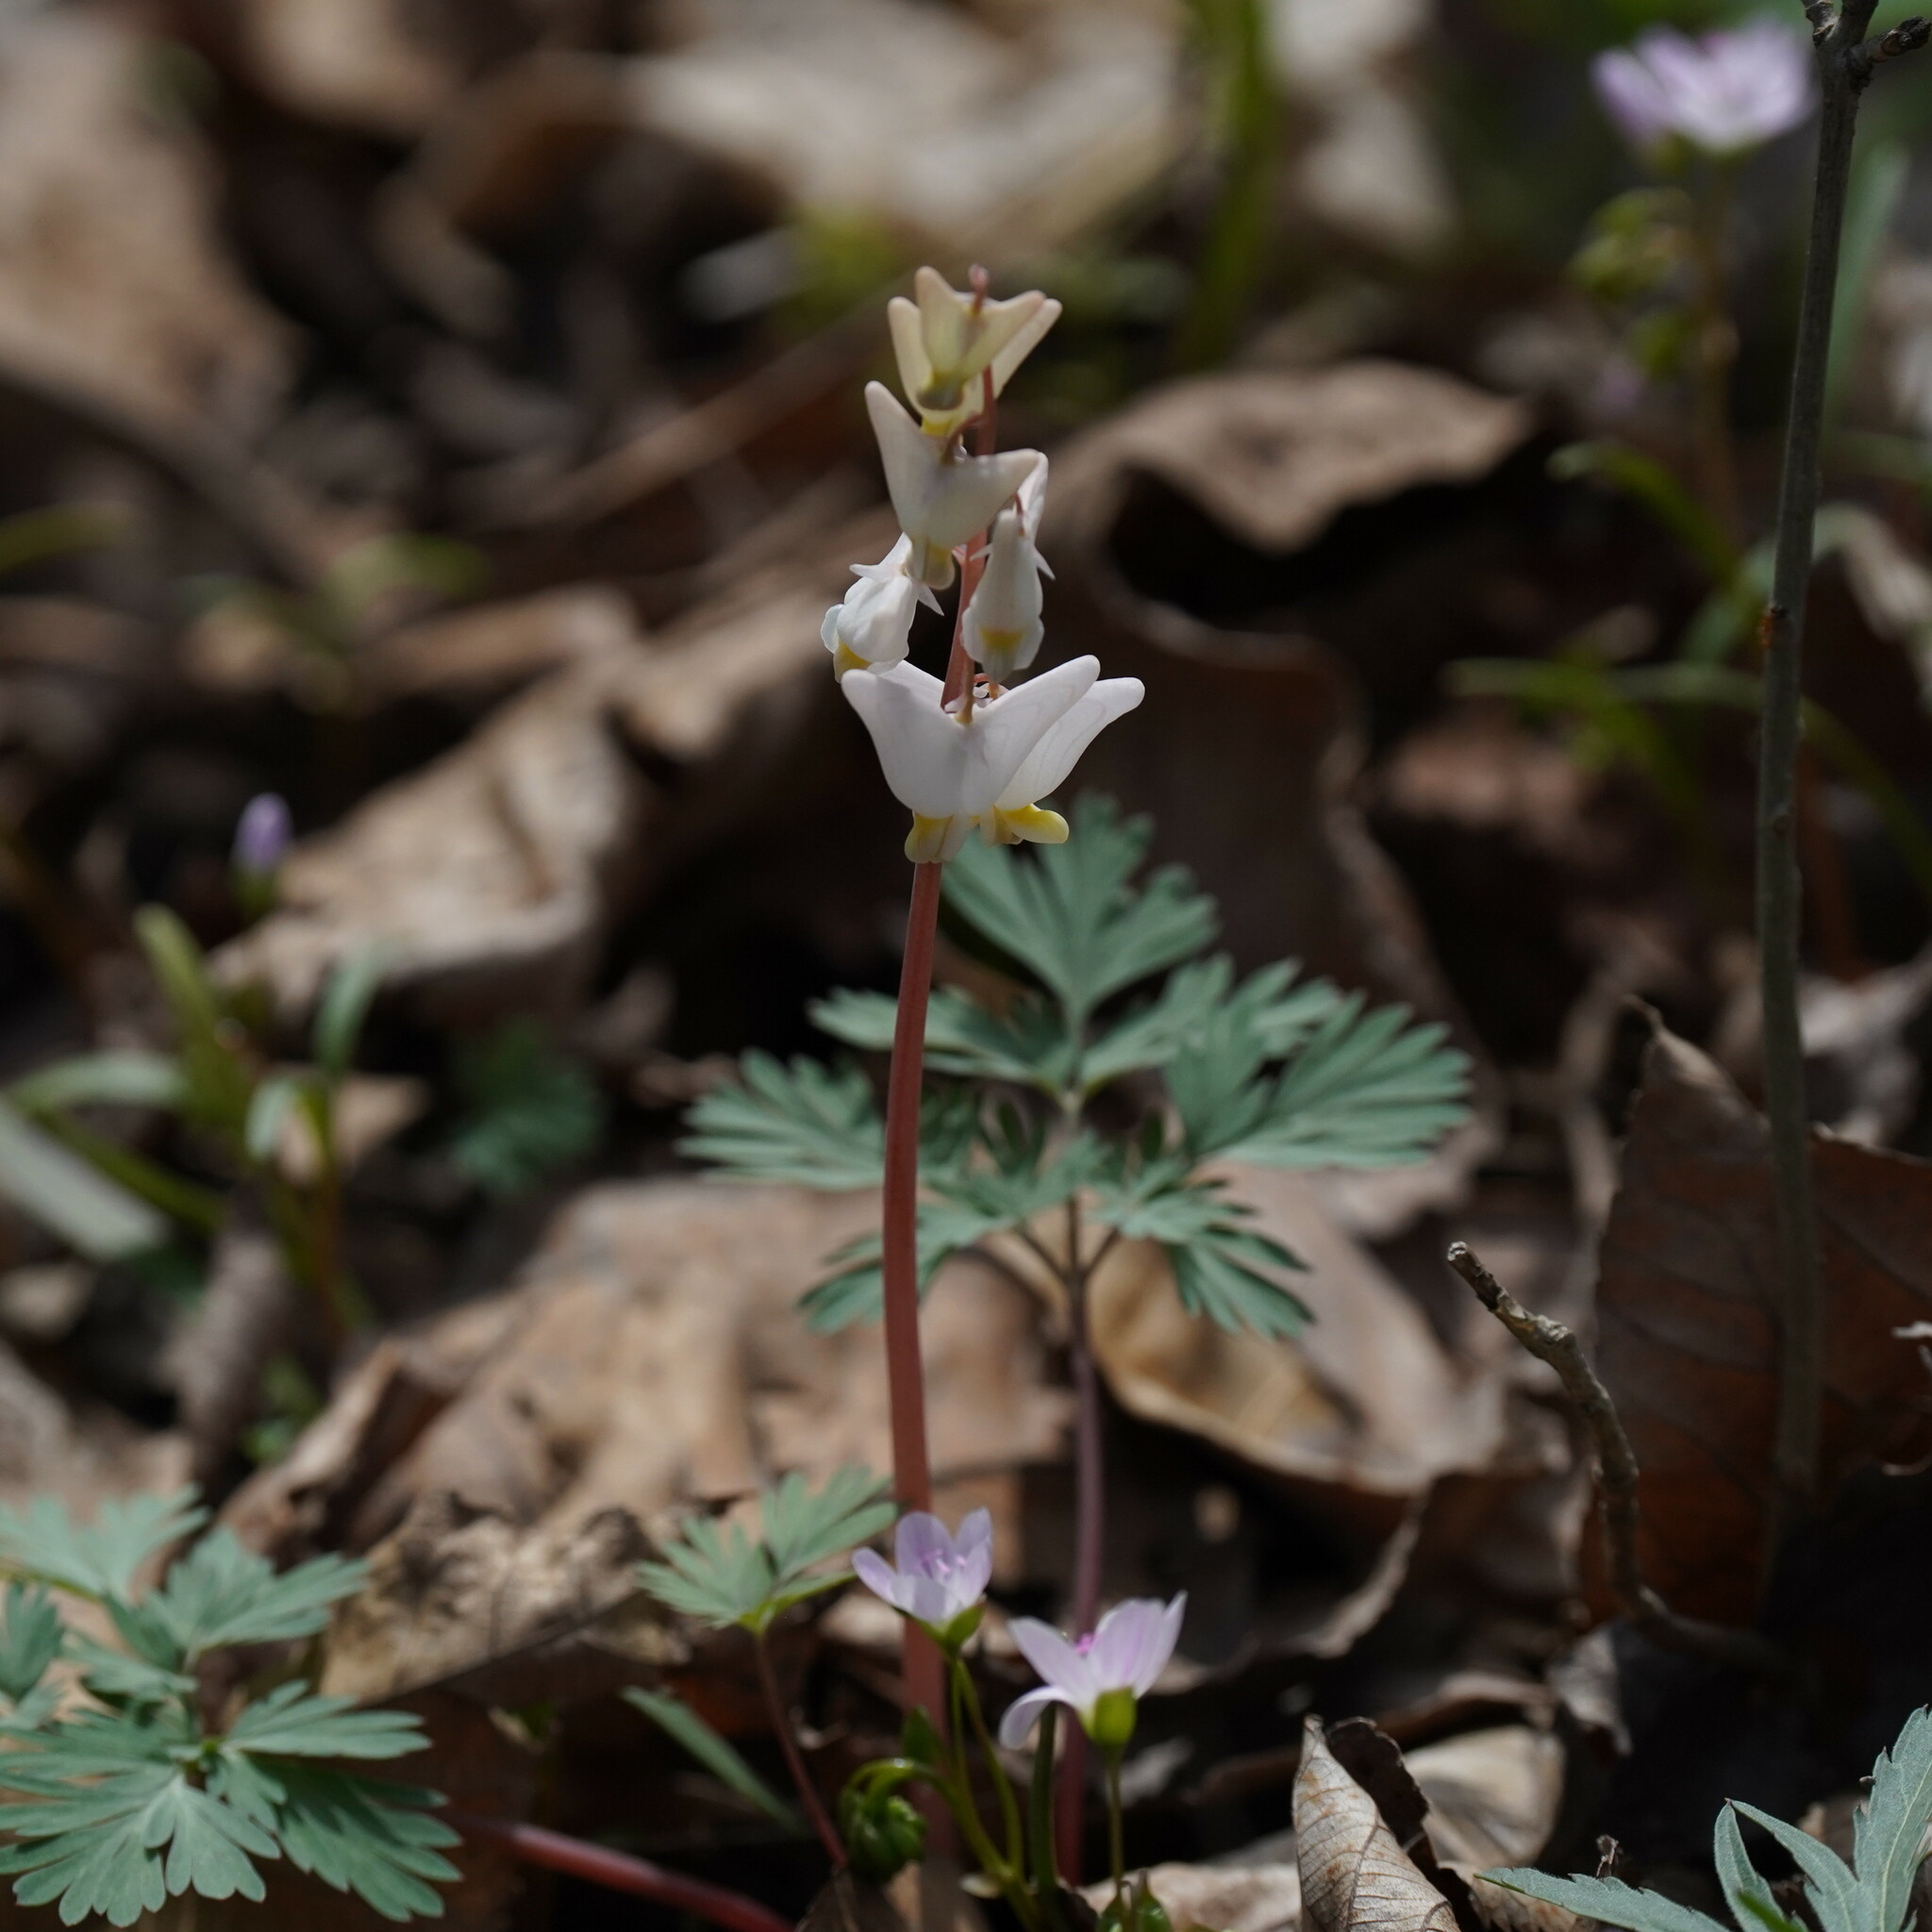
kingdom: Plantae
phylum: Tracheophyta
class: Magnoliopsida
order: Ranunculales
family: Papaveraceae
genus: Dicentra
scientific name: Dicentra cucullaria
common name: Dutchman's breeches
